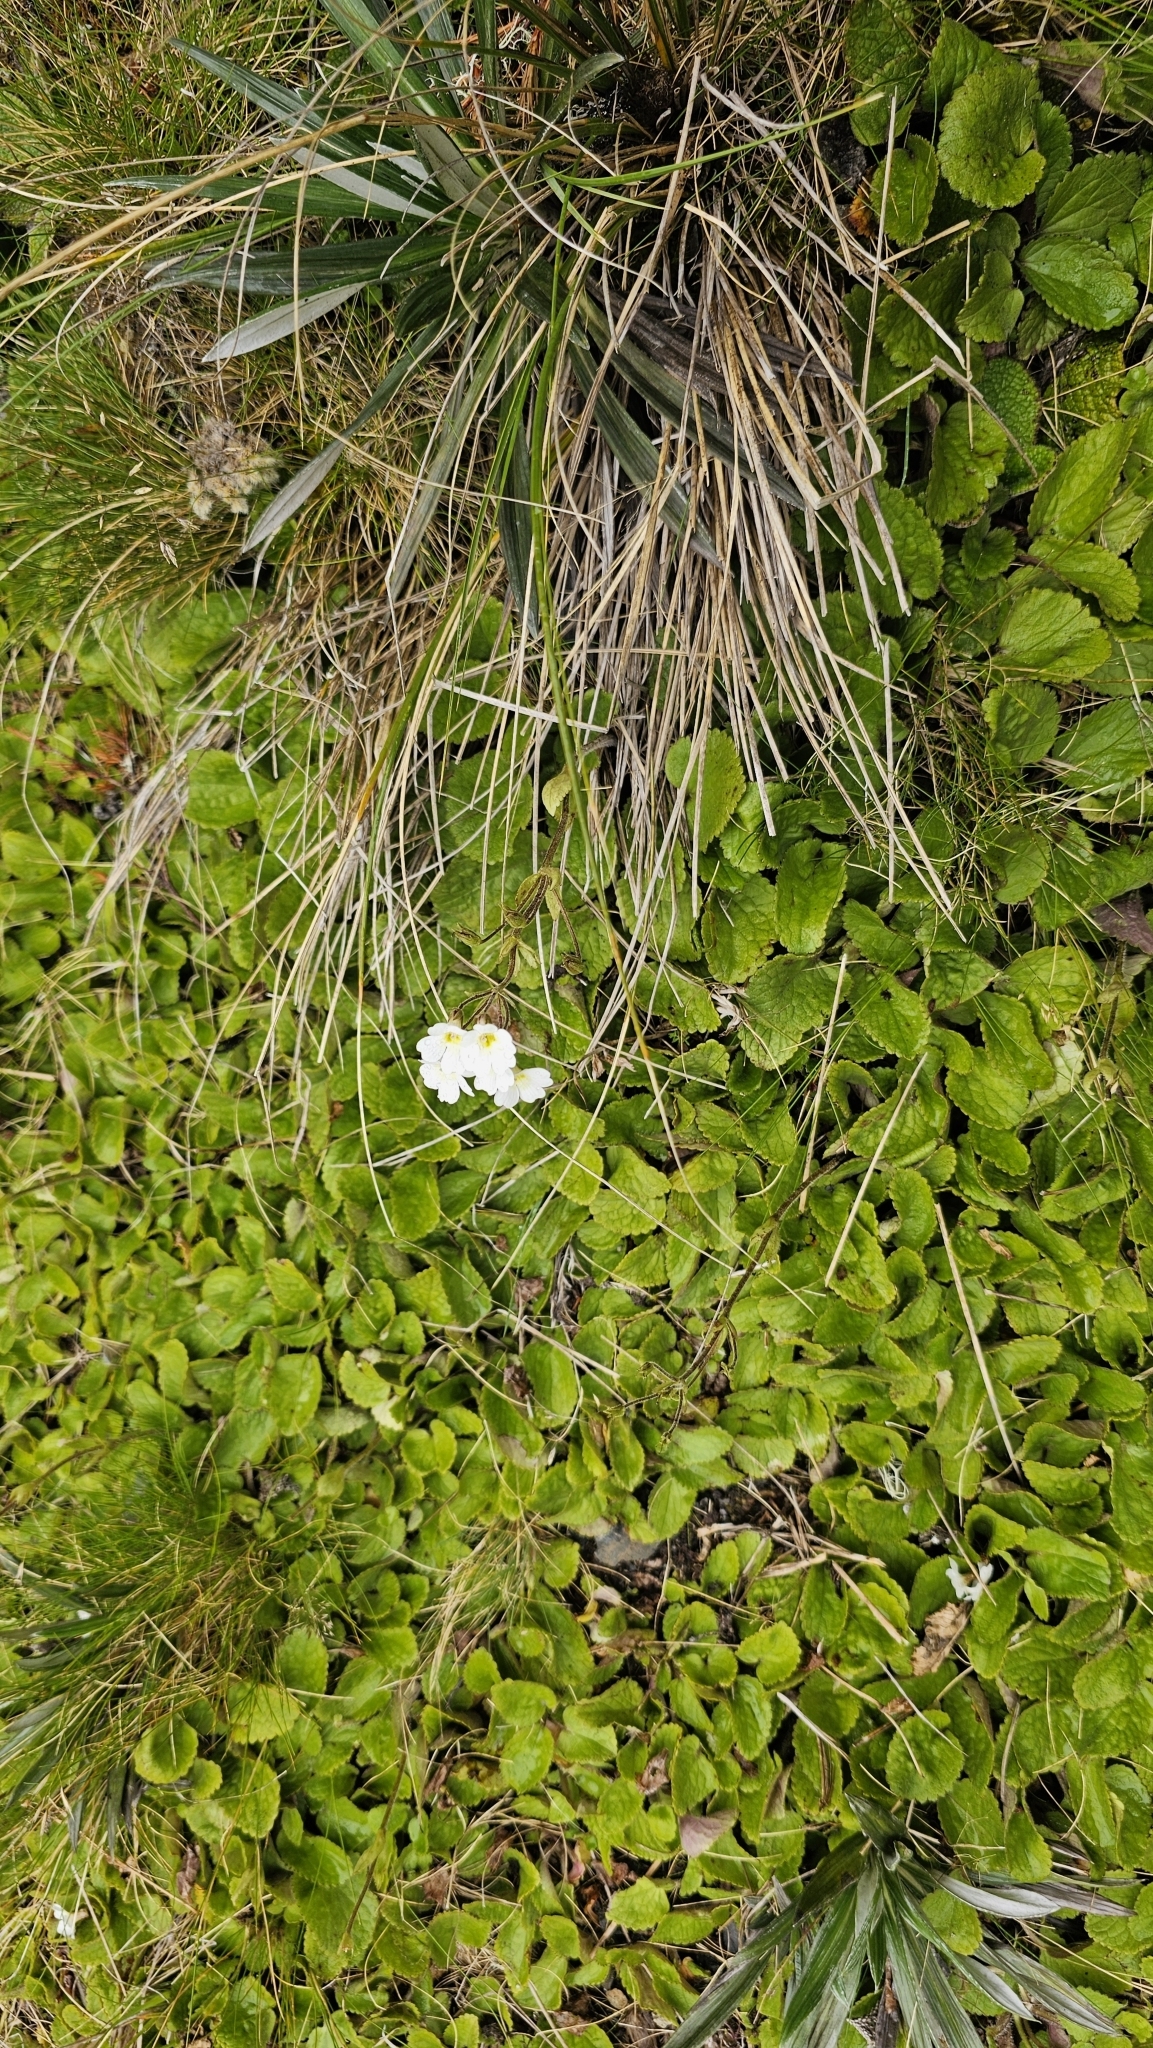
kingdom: Plantae
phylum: Tracheophyta
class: Magnoliopsida
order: Lamiales
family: Plantaginaceae
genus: Ourisia
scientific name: Ourisia macrophylla
